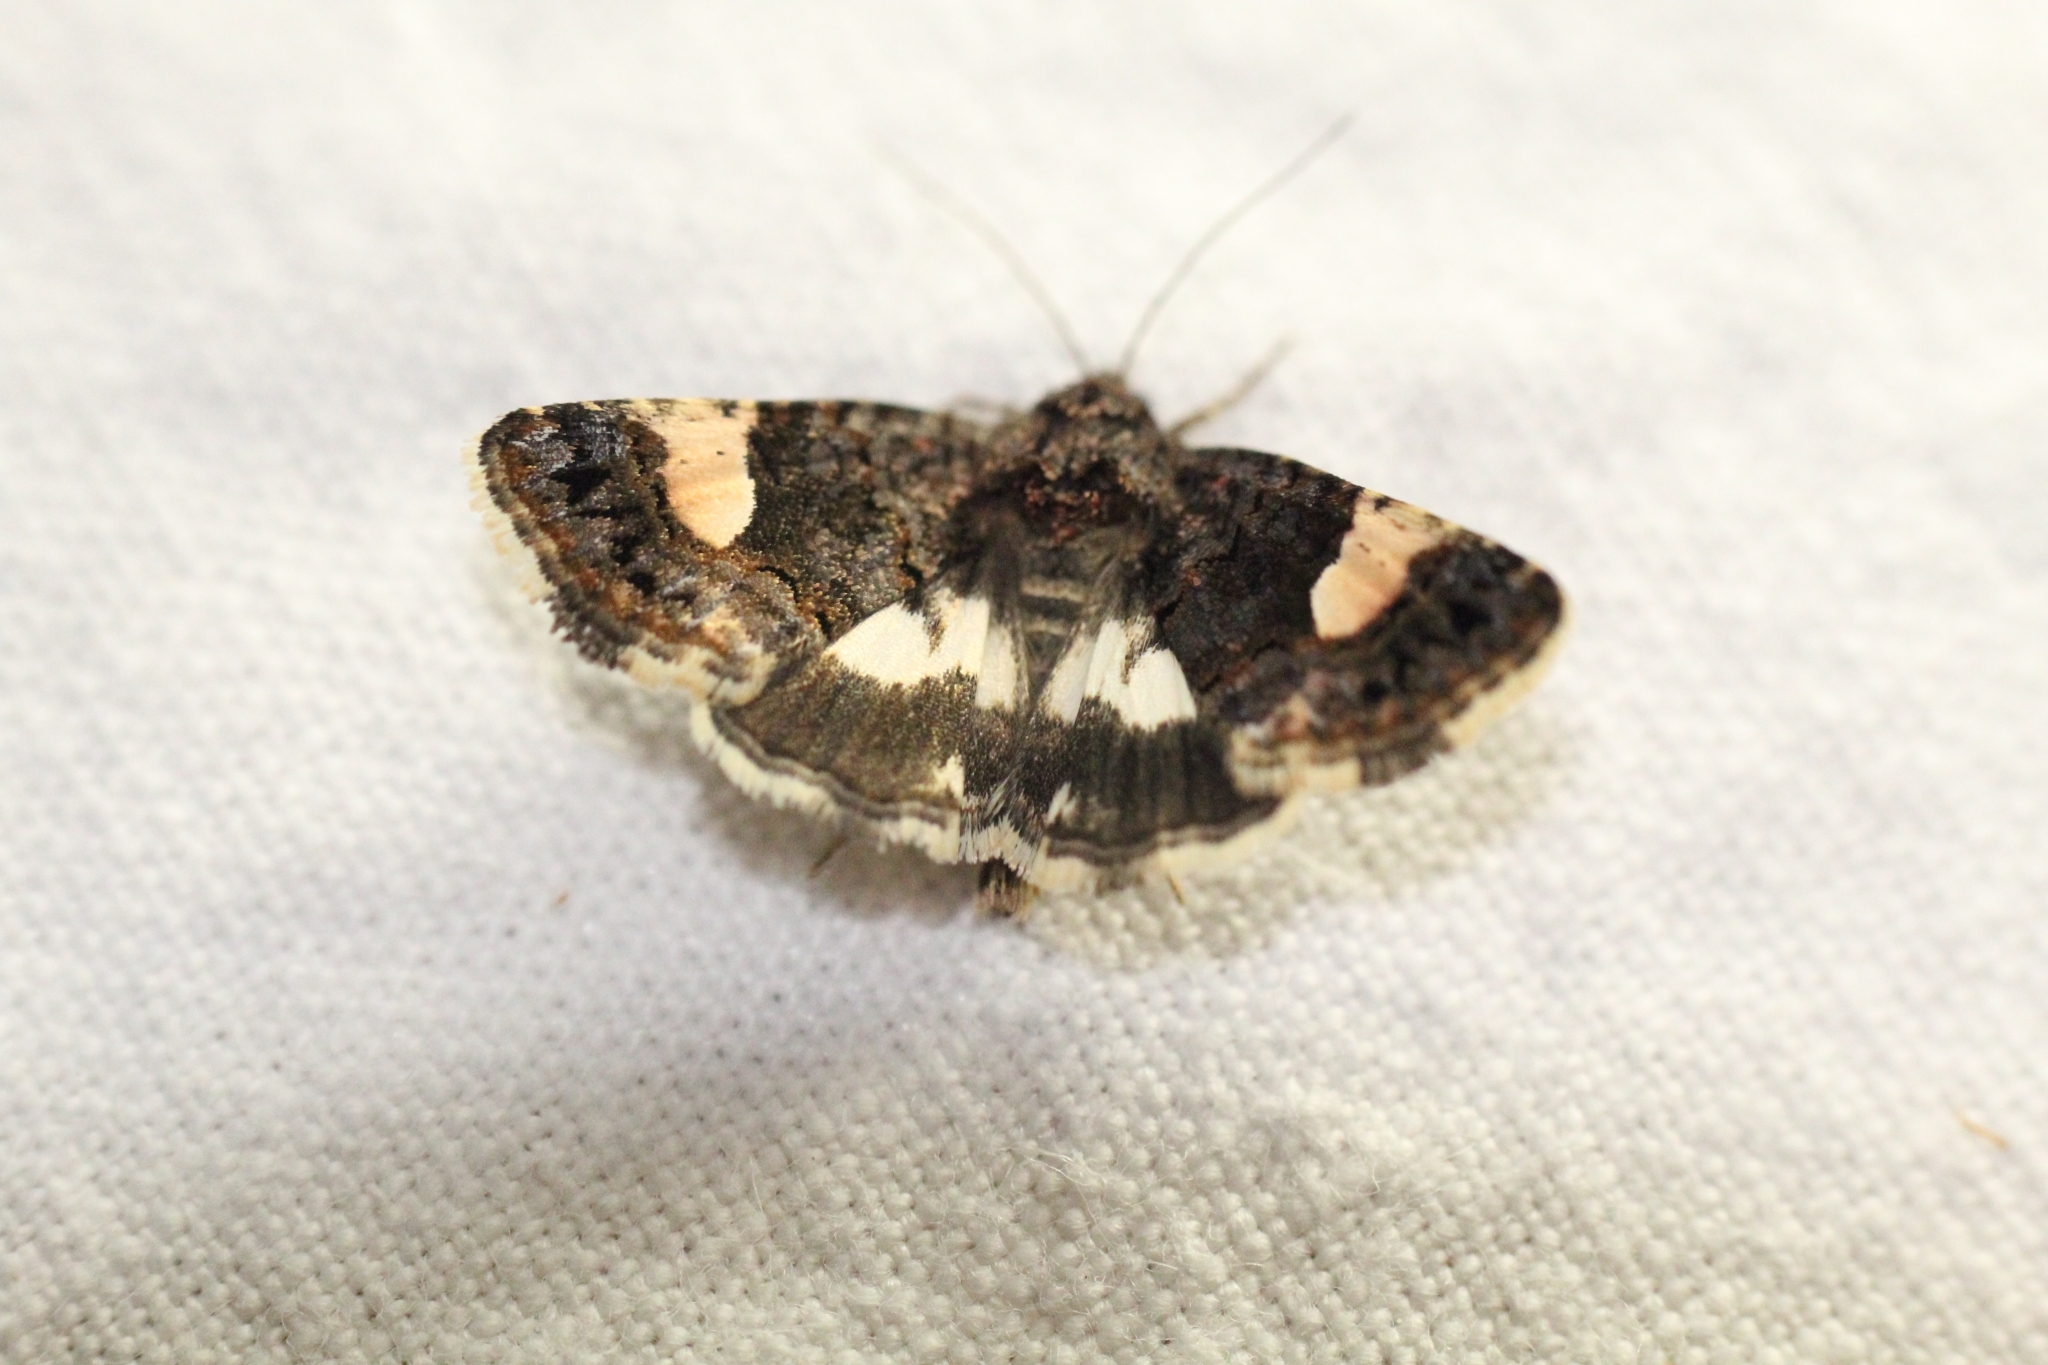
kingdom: Animalia
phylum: Arthropoda
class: Insecta
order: Lepidoptera
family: Erebidae
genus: Tyta
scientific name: Tyta luctuosa
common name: Four-spotted
